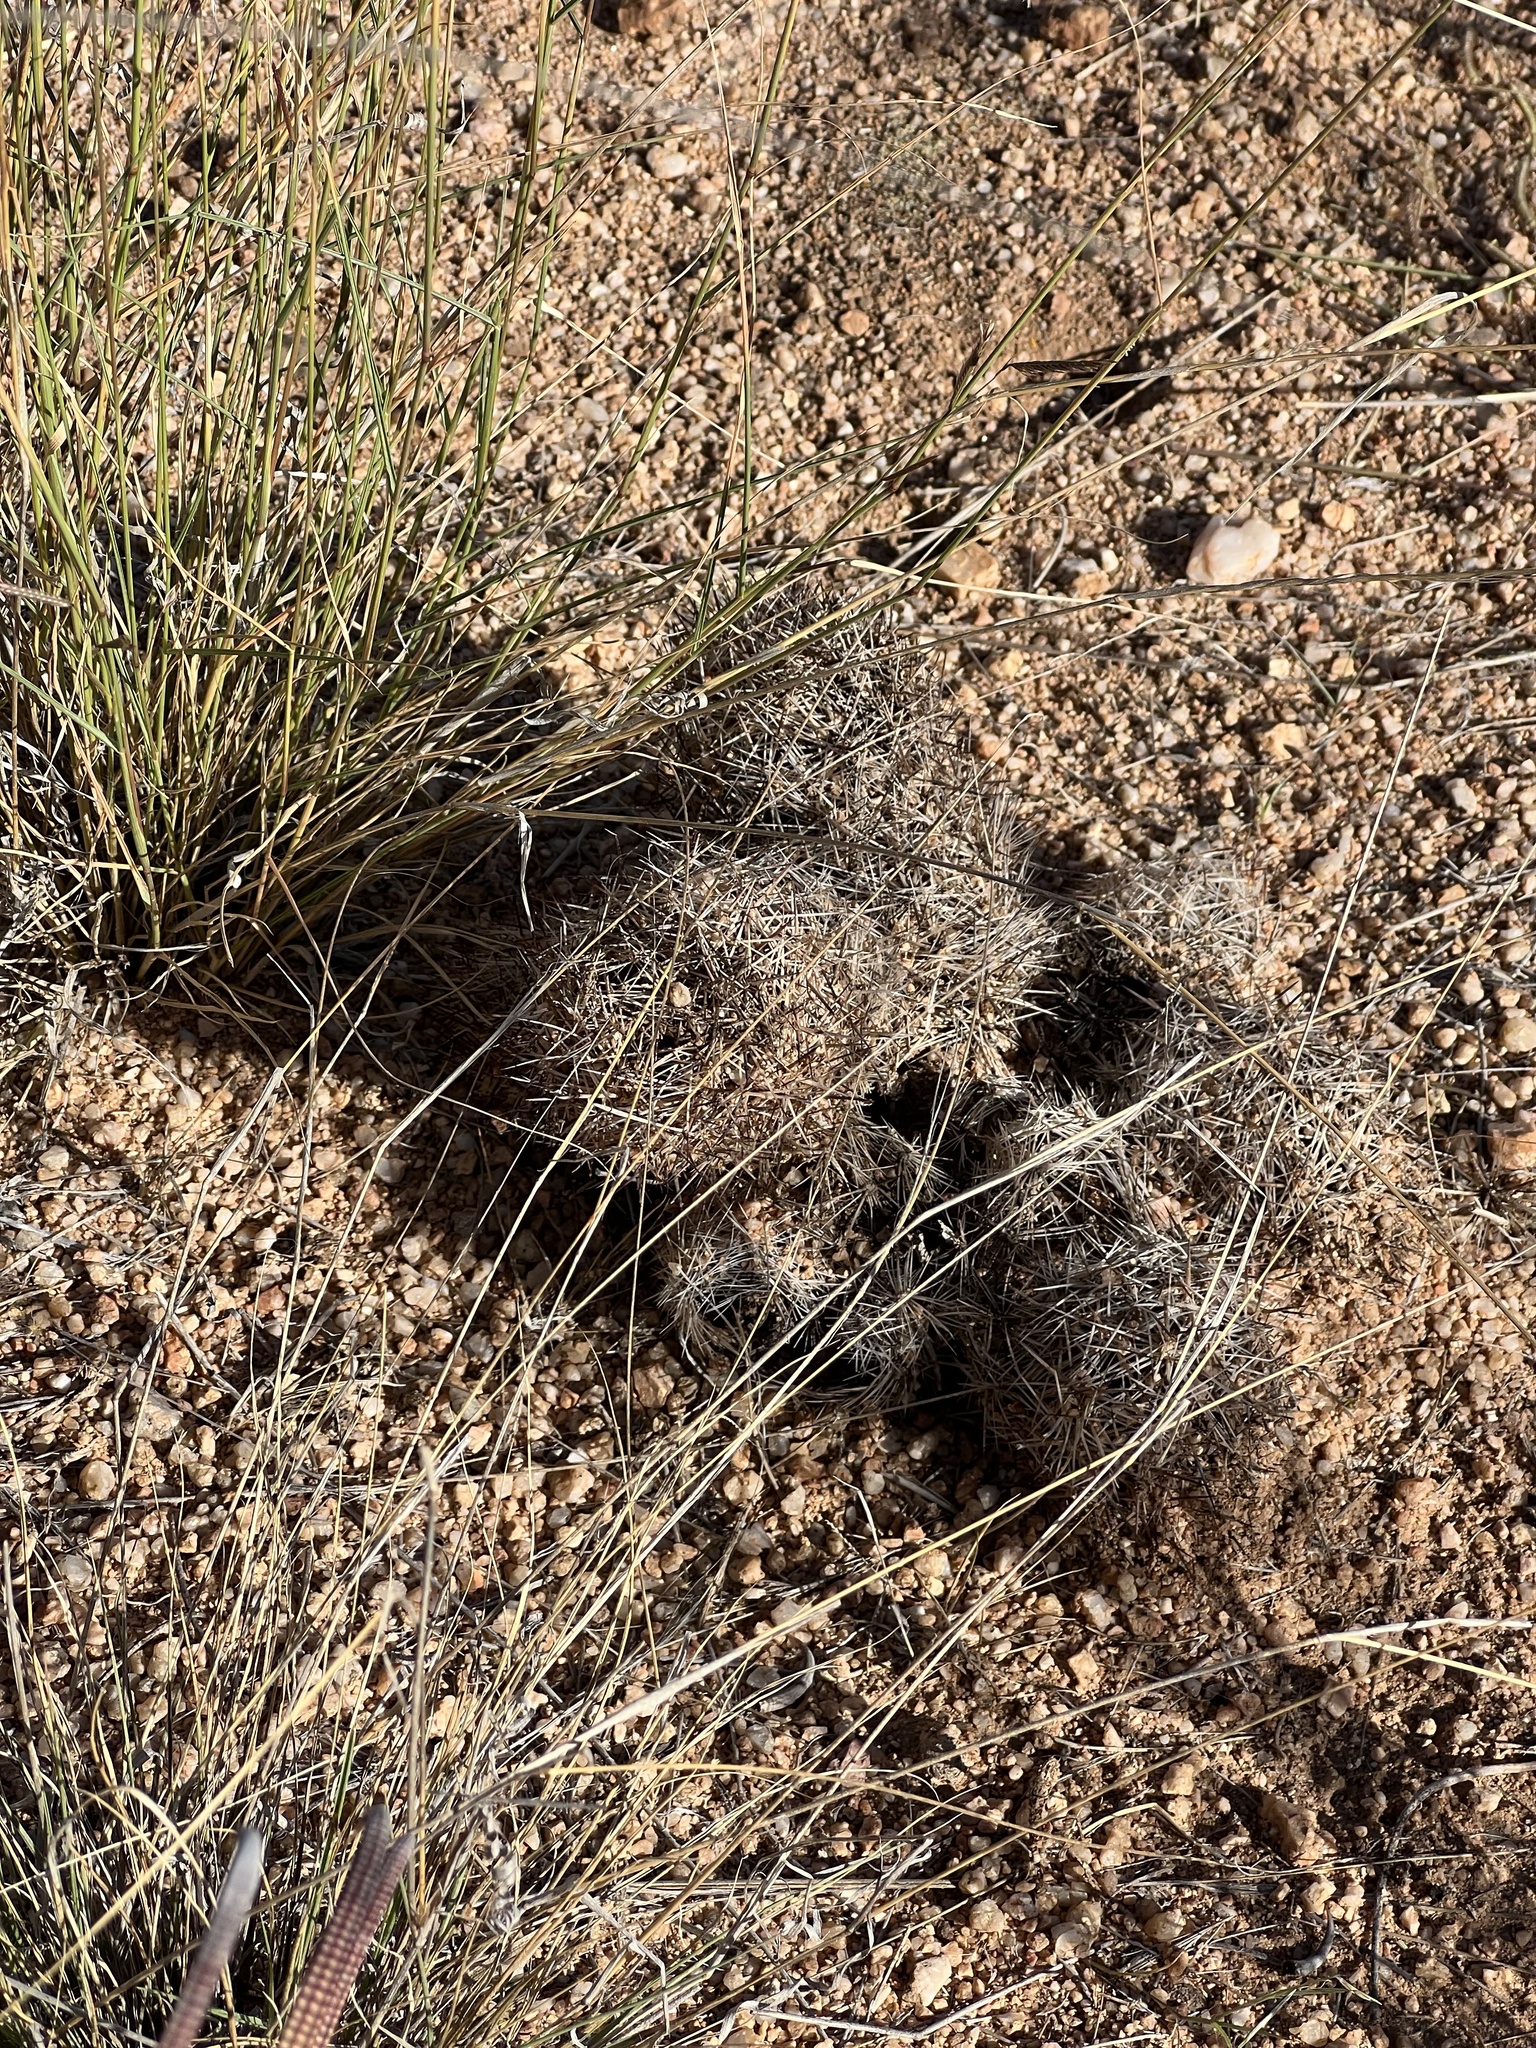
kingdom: Plantae
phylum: Tracheophyta
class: Magnoliopsida
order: Caryophyllales
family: Cactaceae
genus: Sclerocactus
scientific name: Sclerocactus johnsonii
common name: Eight-spine fishhook cactus
